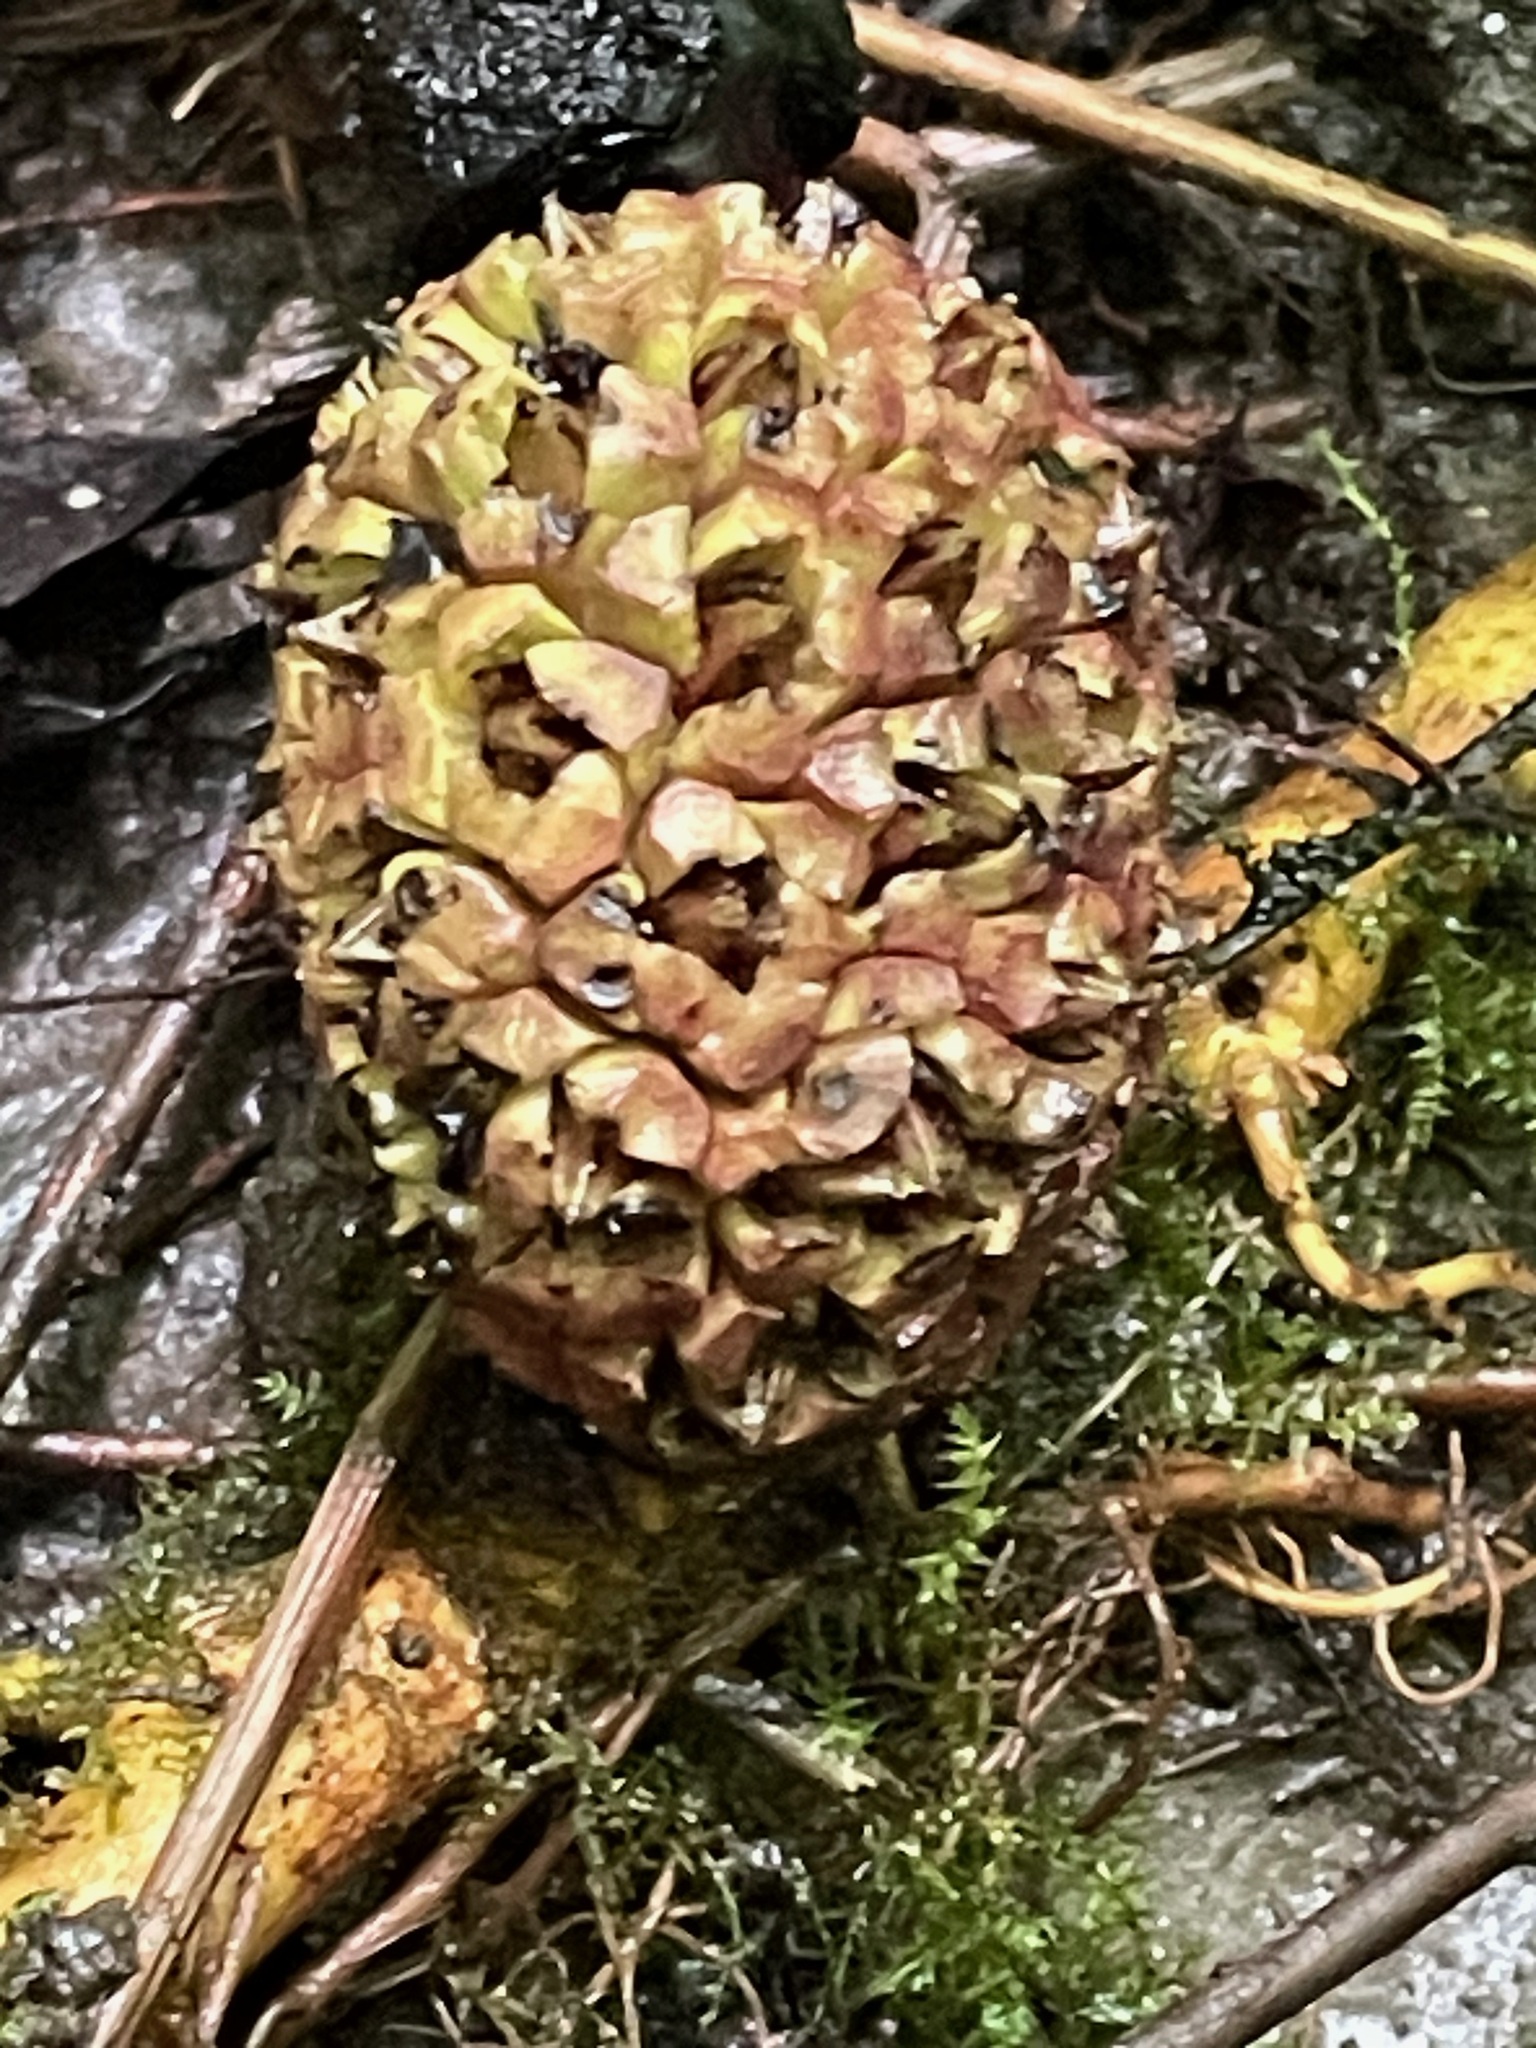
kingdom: Plantae
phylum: Tracheophyta
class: Liliopsida
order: Alismatales
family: Araceae
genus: Symplocarpus
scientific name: Symplocarpus foetidus
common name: Eastern skunk cabbage
